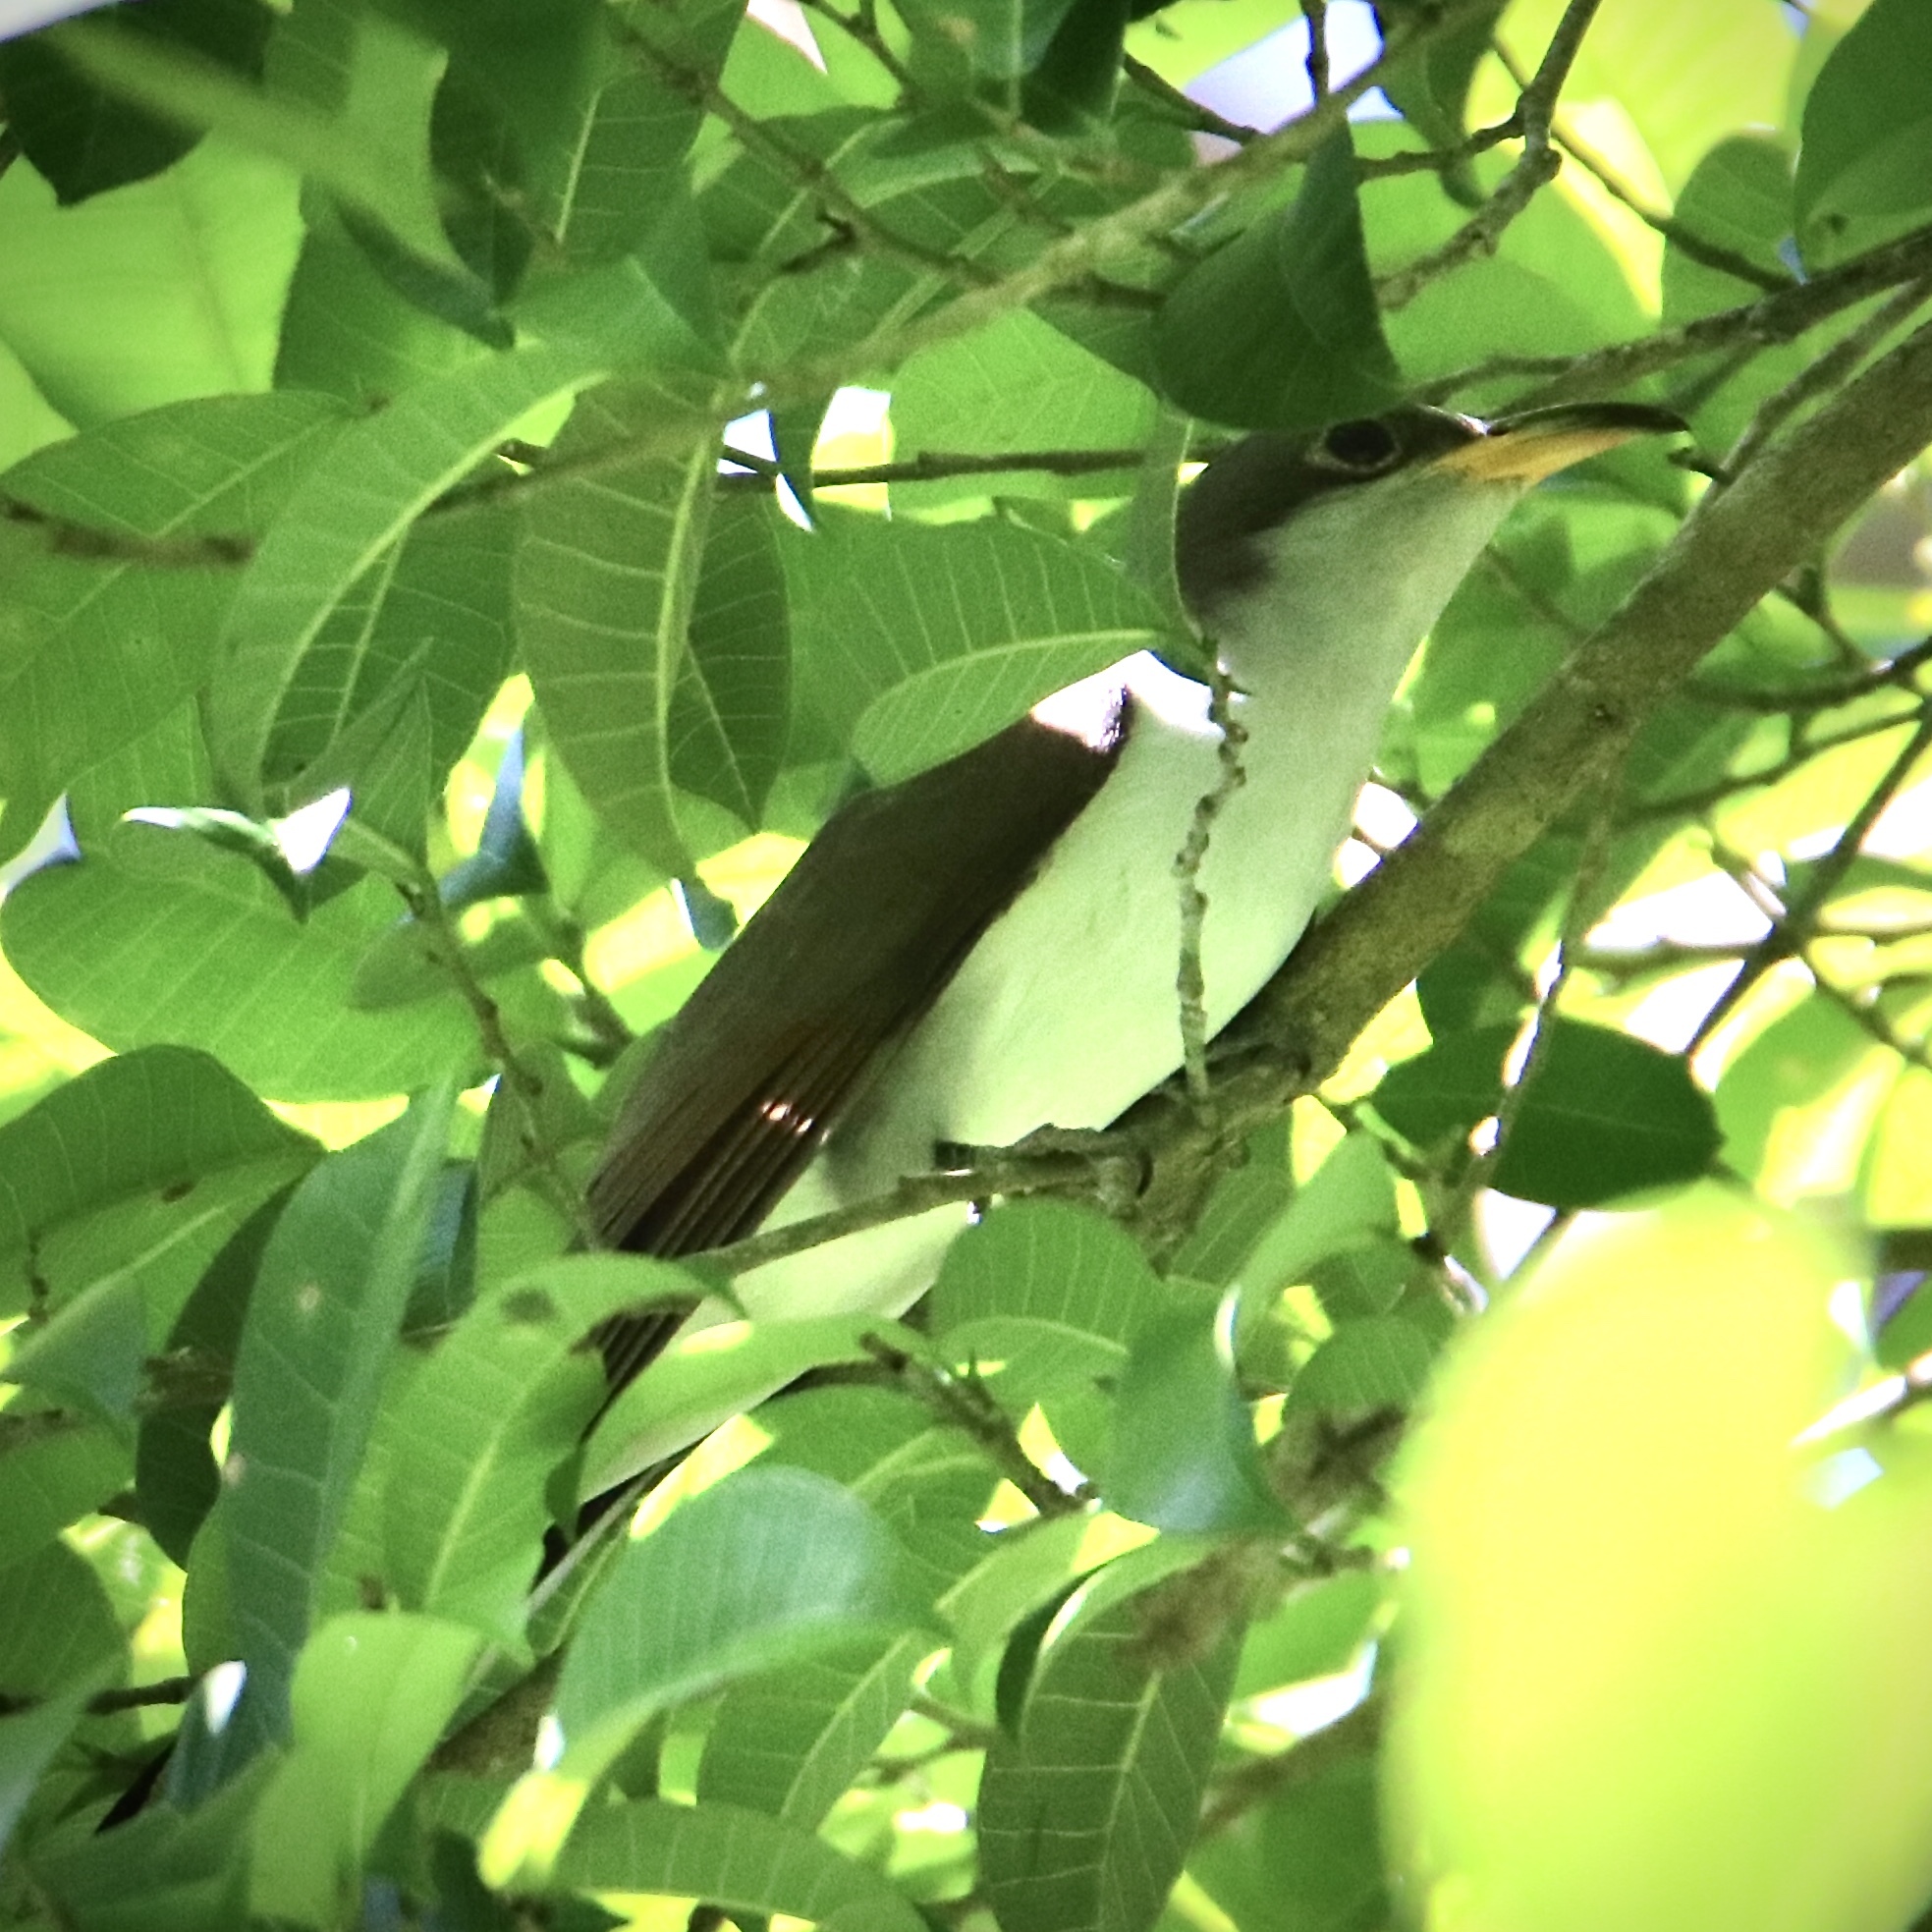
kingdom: Animalia
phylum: Chordata
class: Aves
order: Cuculiformes
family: Cuculidae
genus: Coccyzus
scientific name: Coccyzus americanus
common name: Yellow-billed cuckoo
